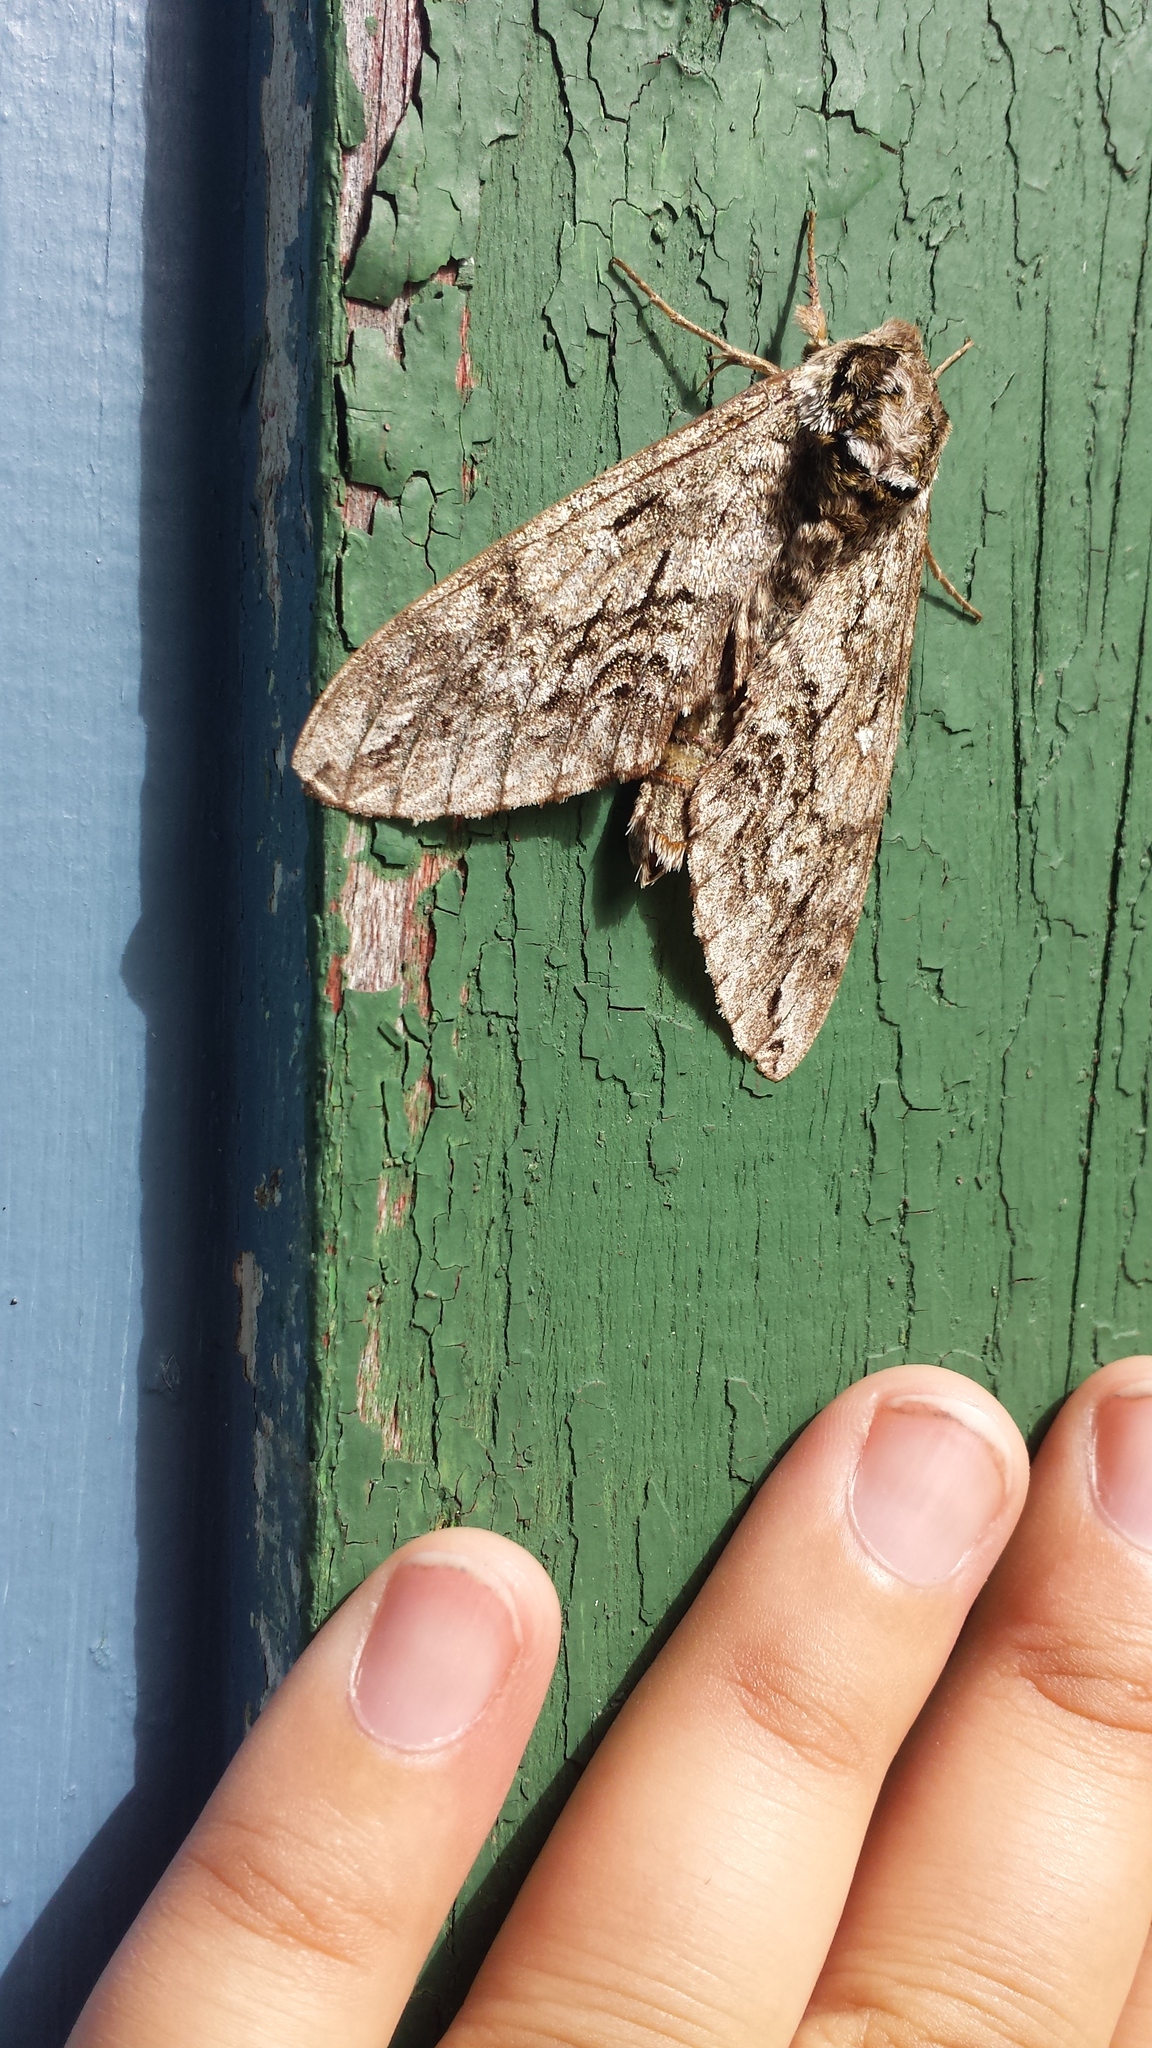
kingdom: Animalia
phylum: Arthropoda
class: Insecta
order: Lepidoptera
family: Sphingidae
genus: Ceratomia
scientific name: Ceratomia undulosa
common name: Waved sphinx
